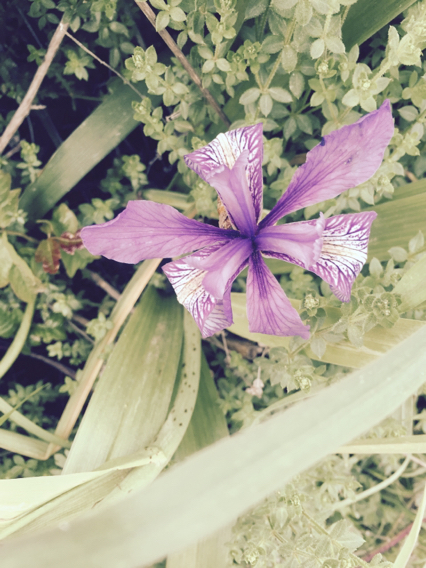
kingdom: Plantae
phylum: Tracheophyta
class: Liliopsida
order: Asparagales
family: Iridaceae
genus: Iris
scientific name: Iris douglasiana
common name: Marin iris
